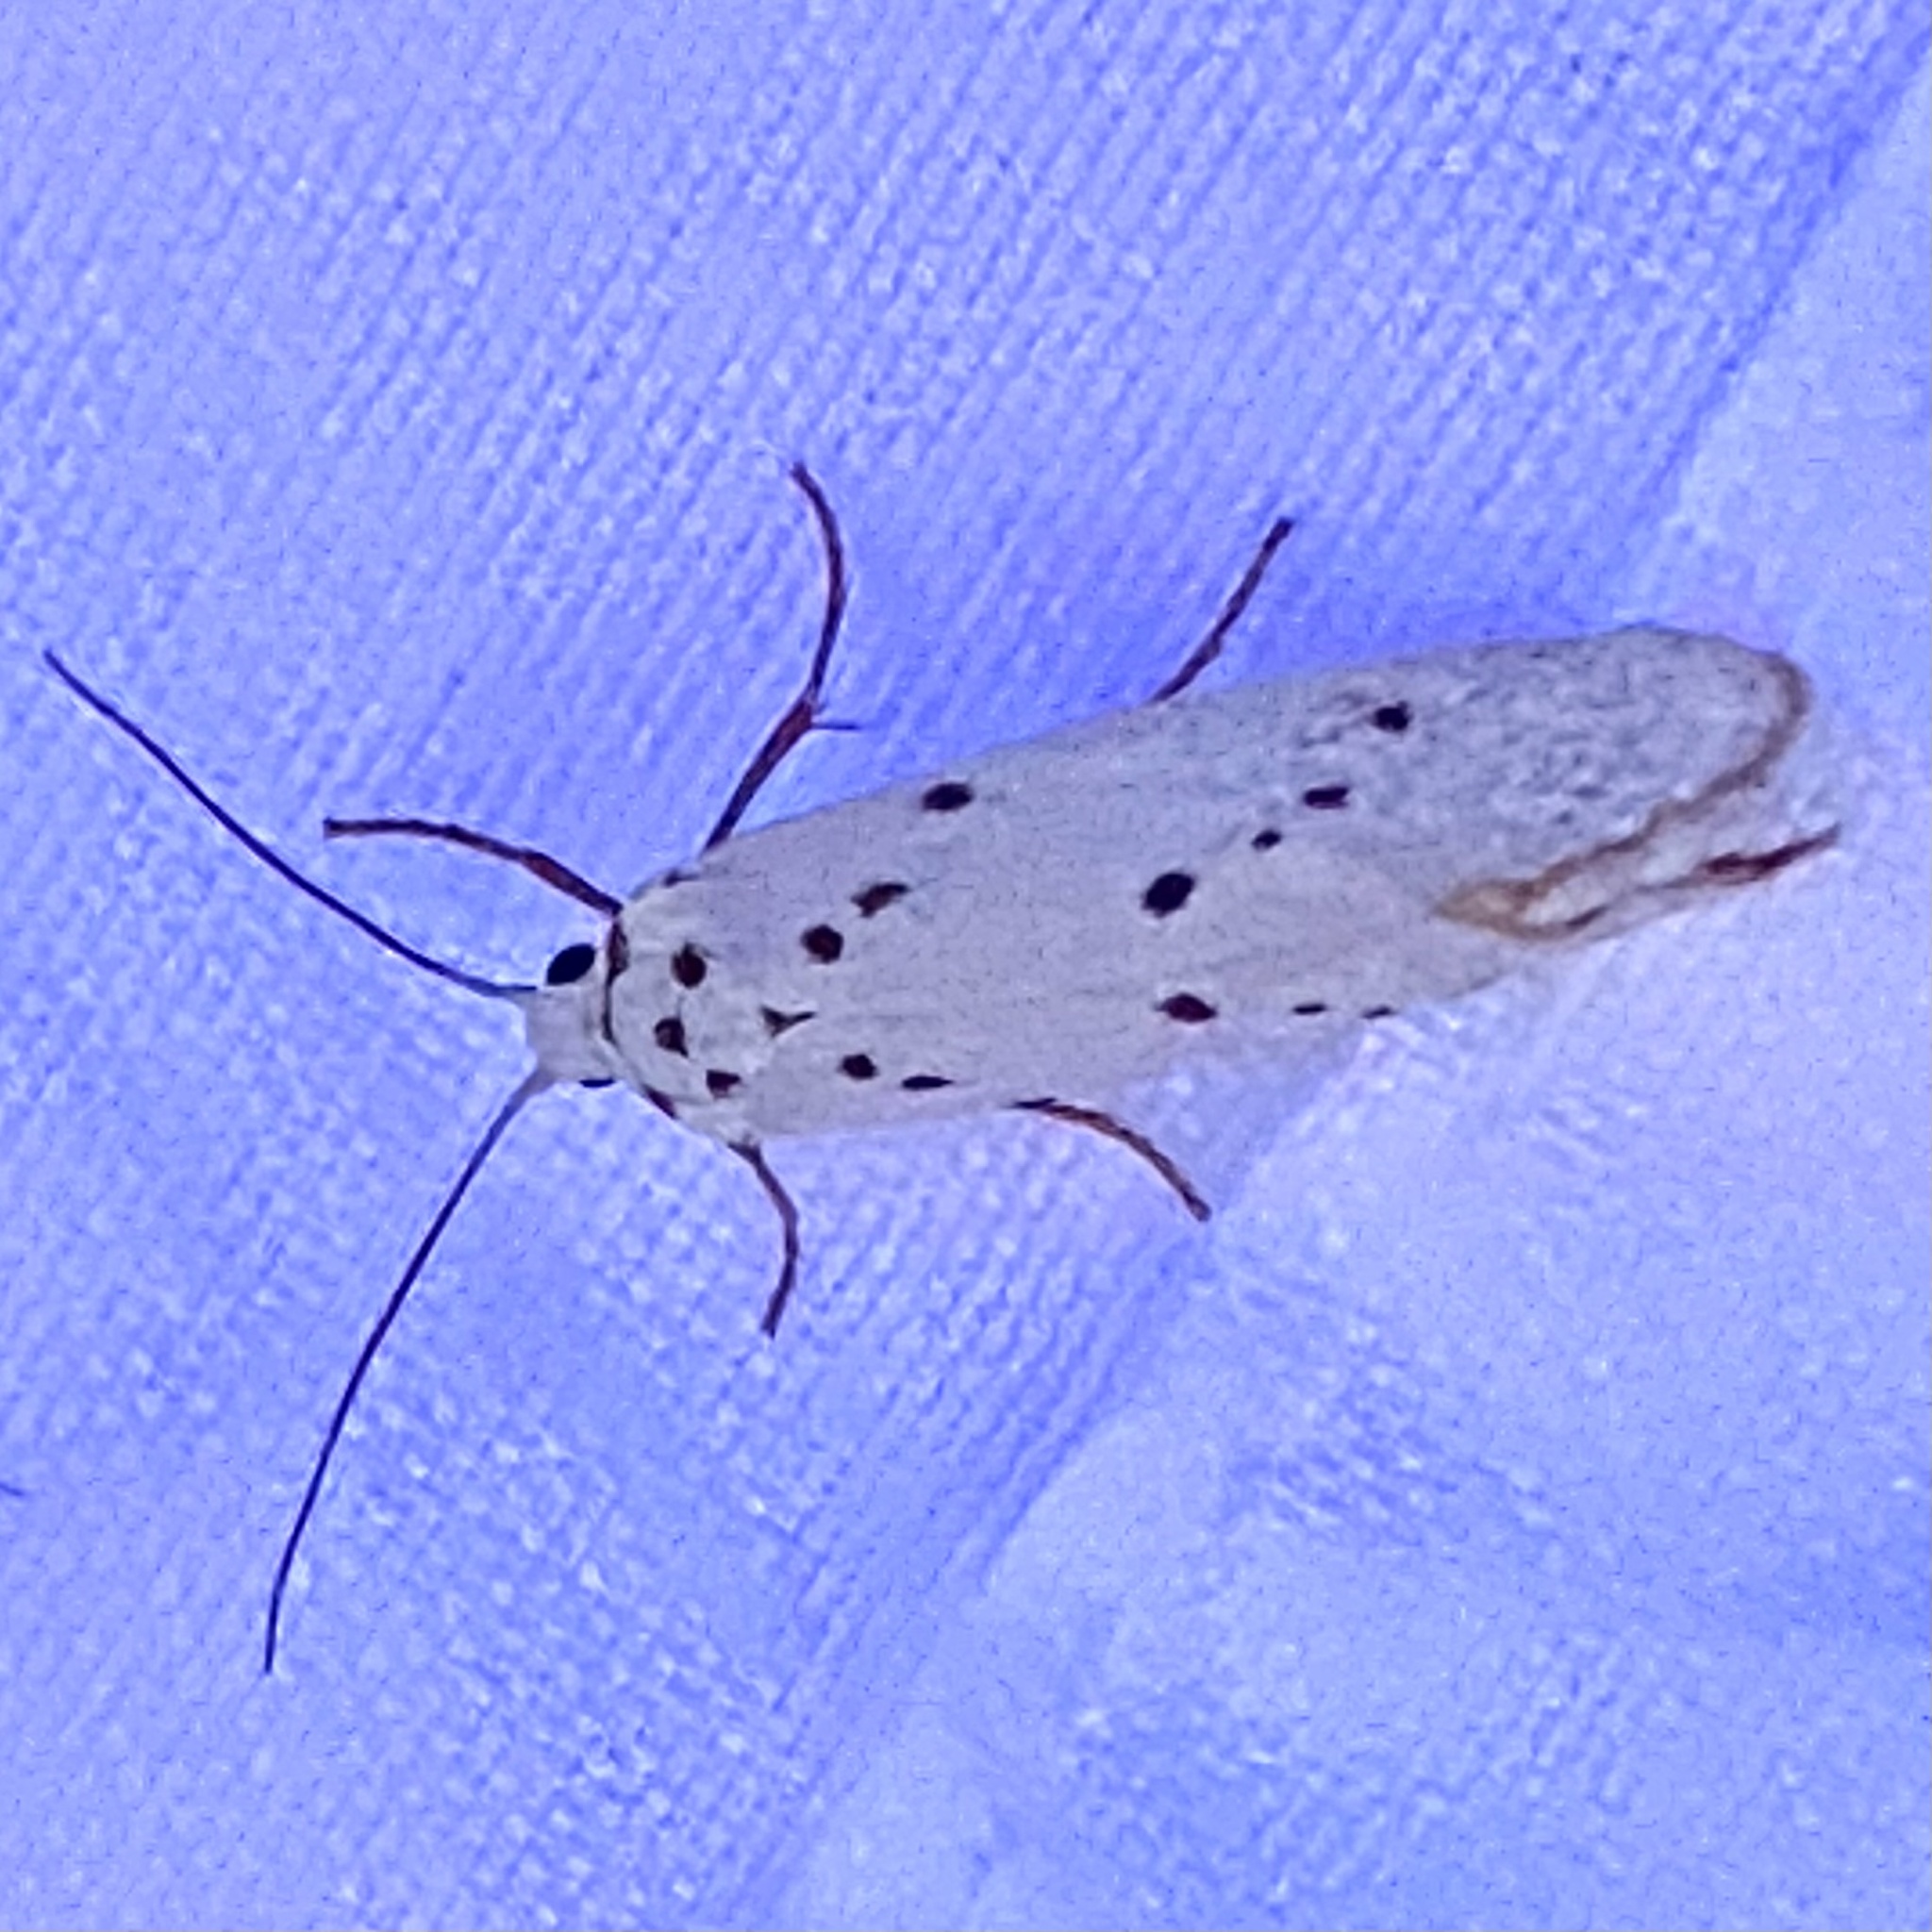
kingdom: Animalia
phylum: Arthropoda
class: Insecta
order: Lepidoptera
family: Lacturidae
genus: Lactura
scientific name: Lactura
